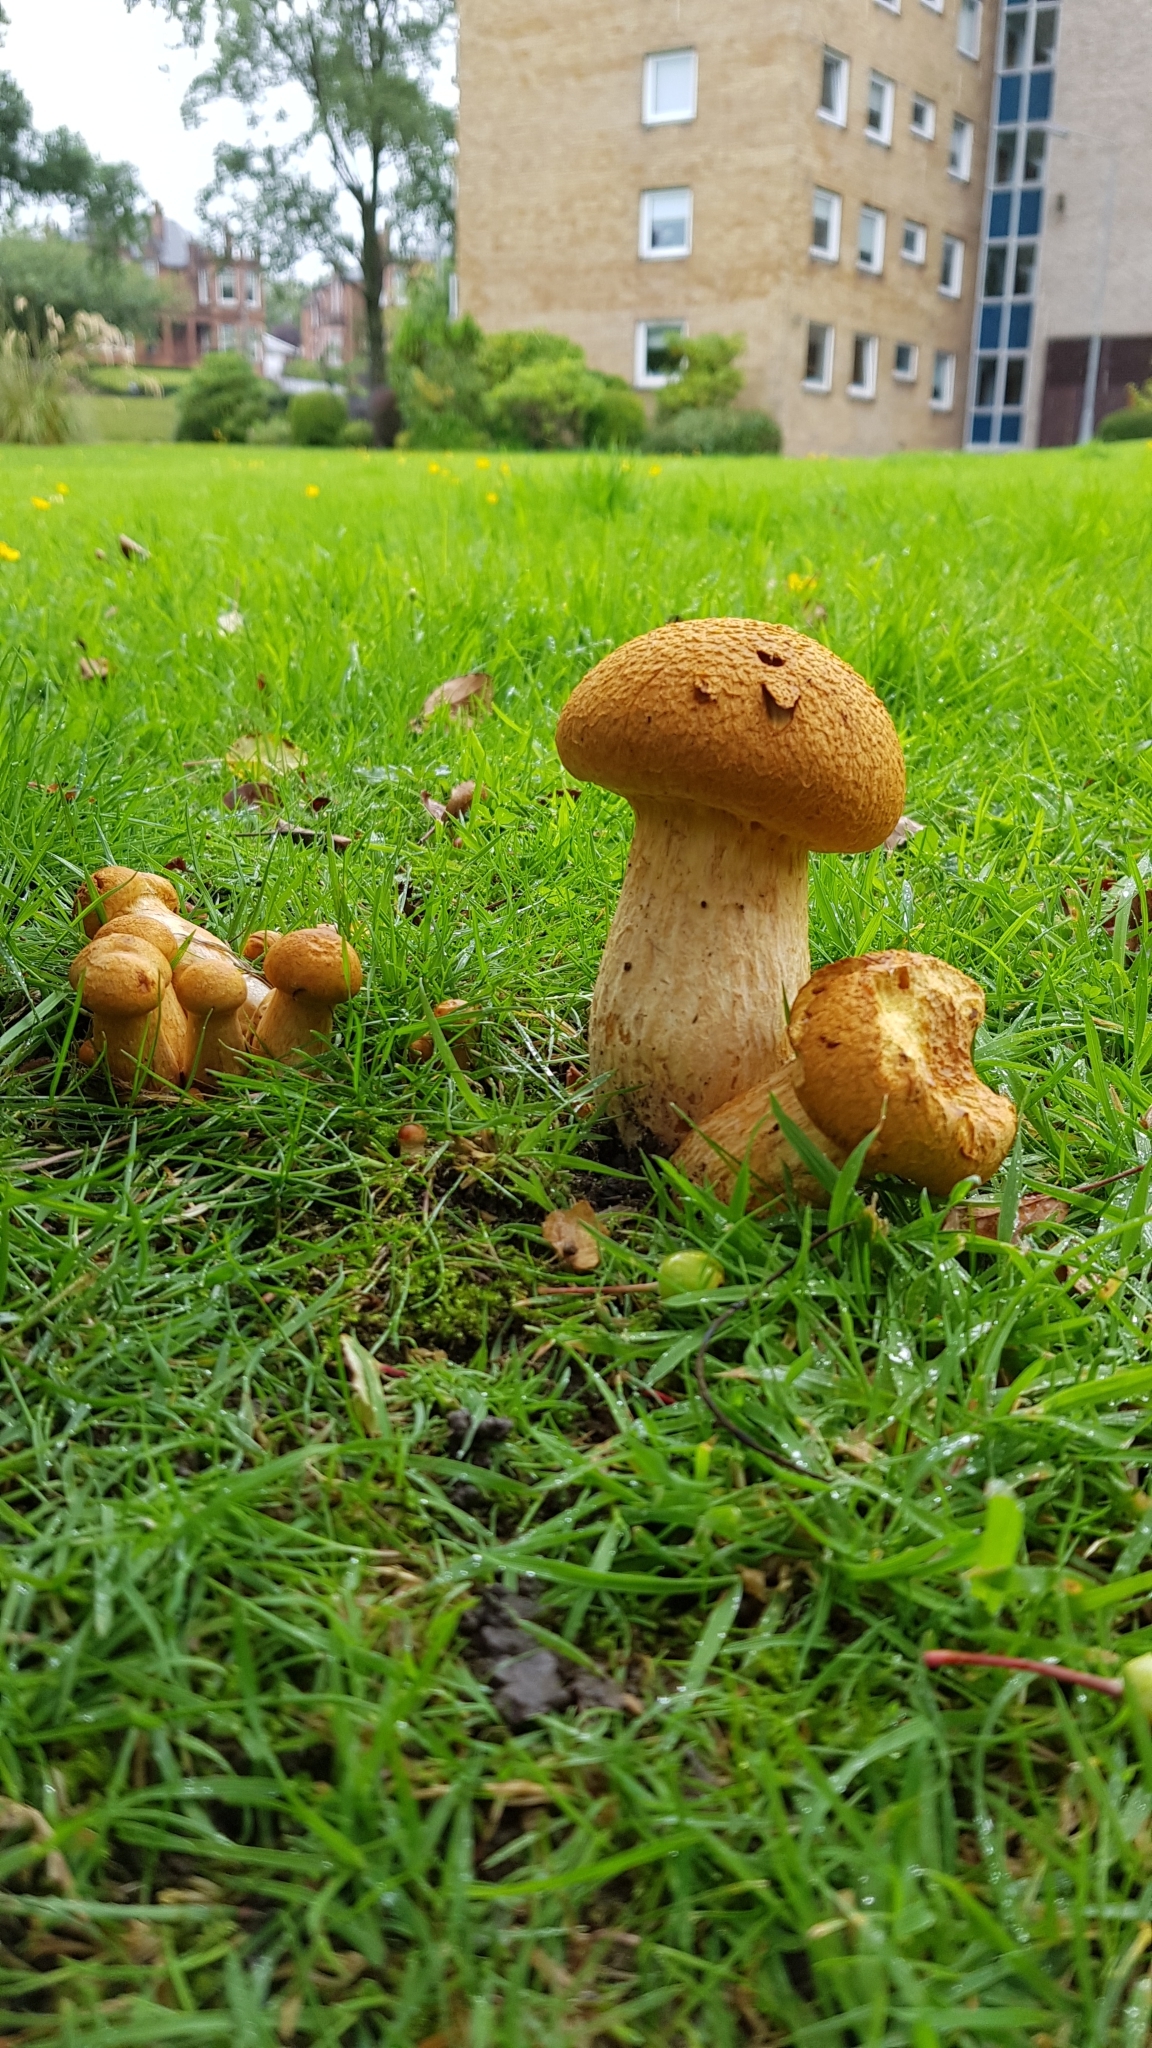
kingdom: Fungi
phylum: Basidiomycota
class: Agaricomycetes
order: Agaricales
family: Hymenogastraceae
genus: Gymnopilus
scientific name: Gymnopilus junonius
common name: Spectacular rustgill
